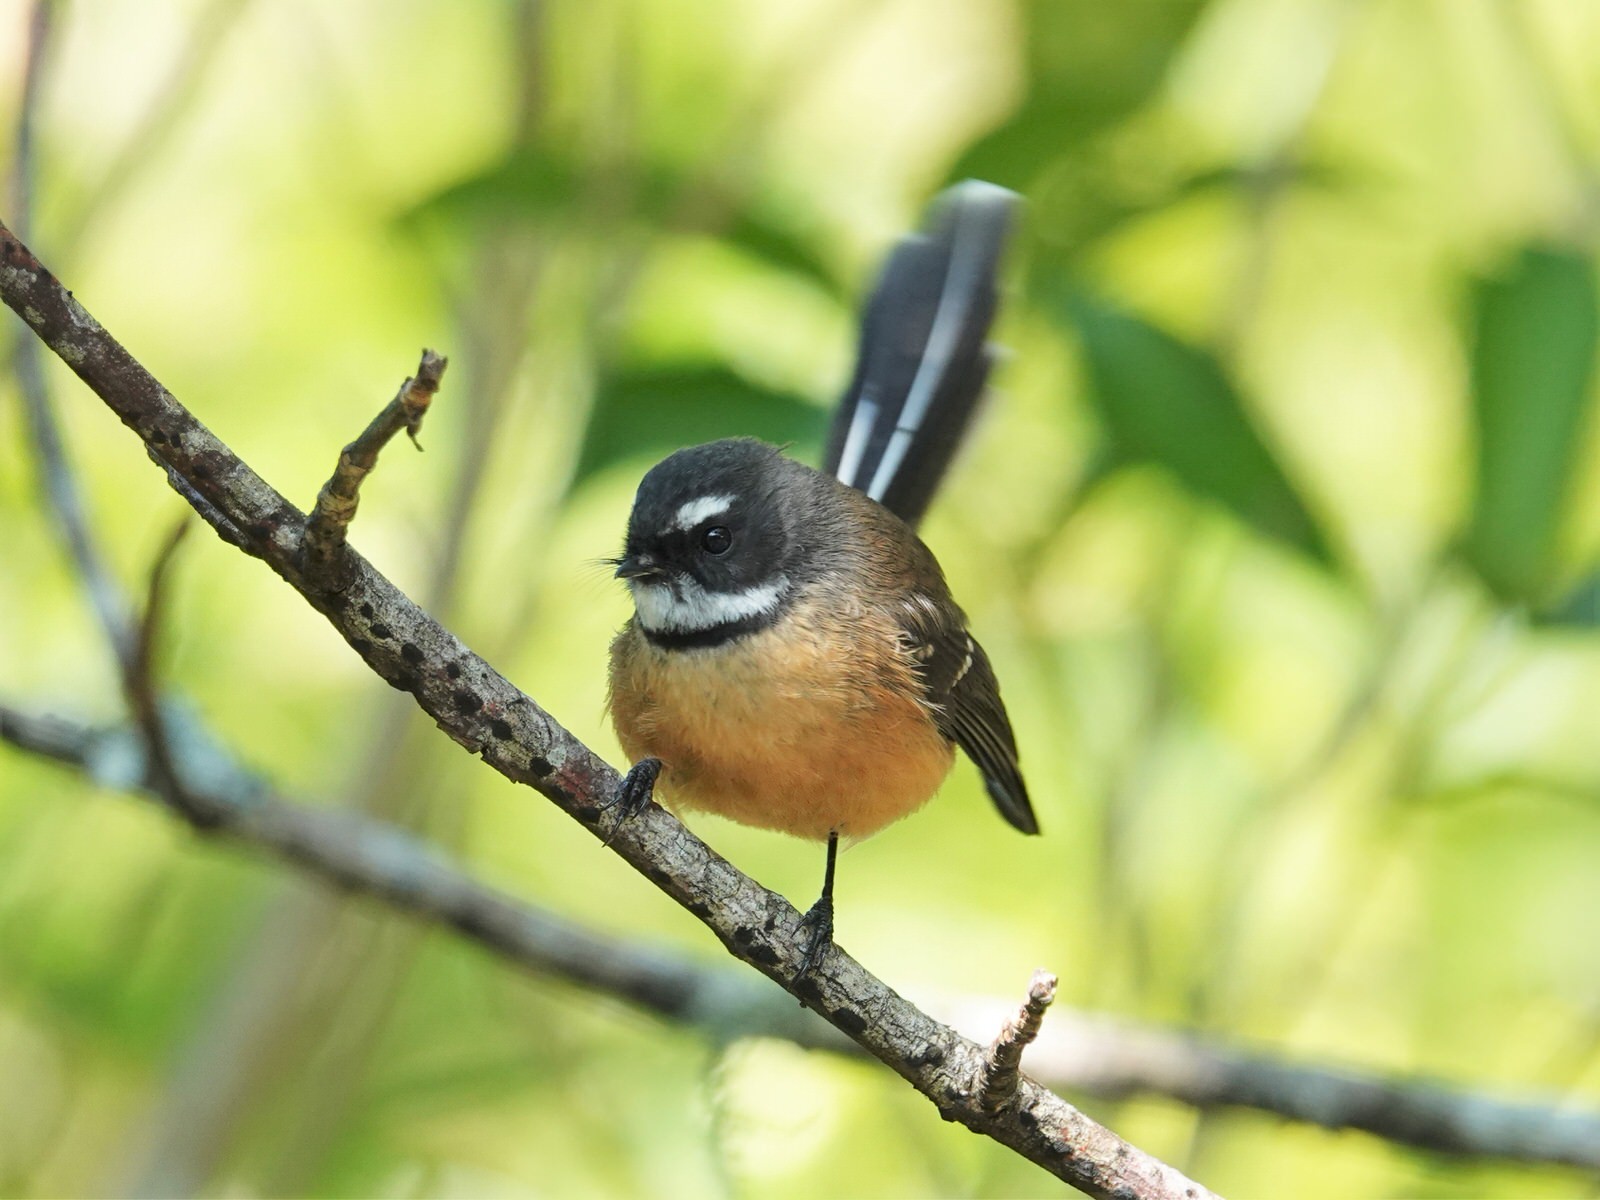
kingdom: Animalia
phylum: Chordata
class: Aves
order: Passeriformes
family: Rhipiduridae
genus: Rhipidura
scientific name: Rhipidura fuliginosa
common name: New zealand fantail
